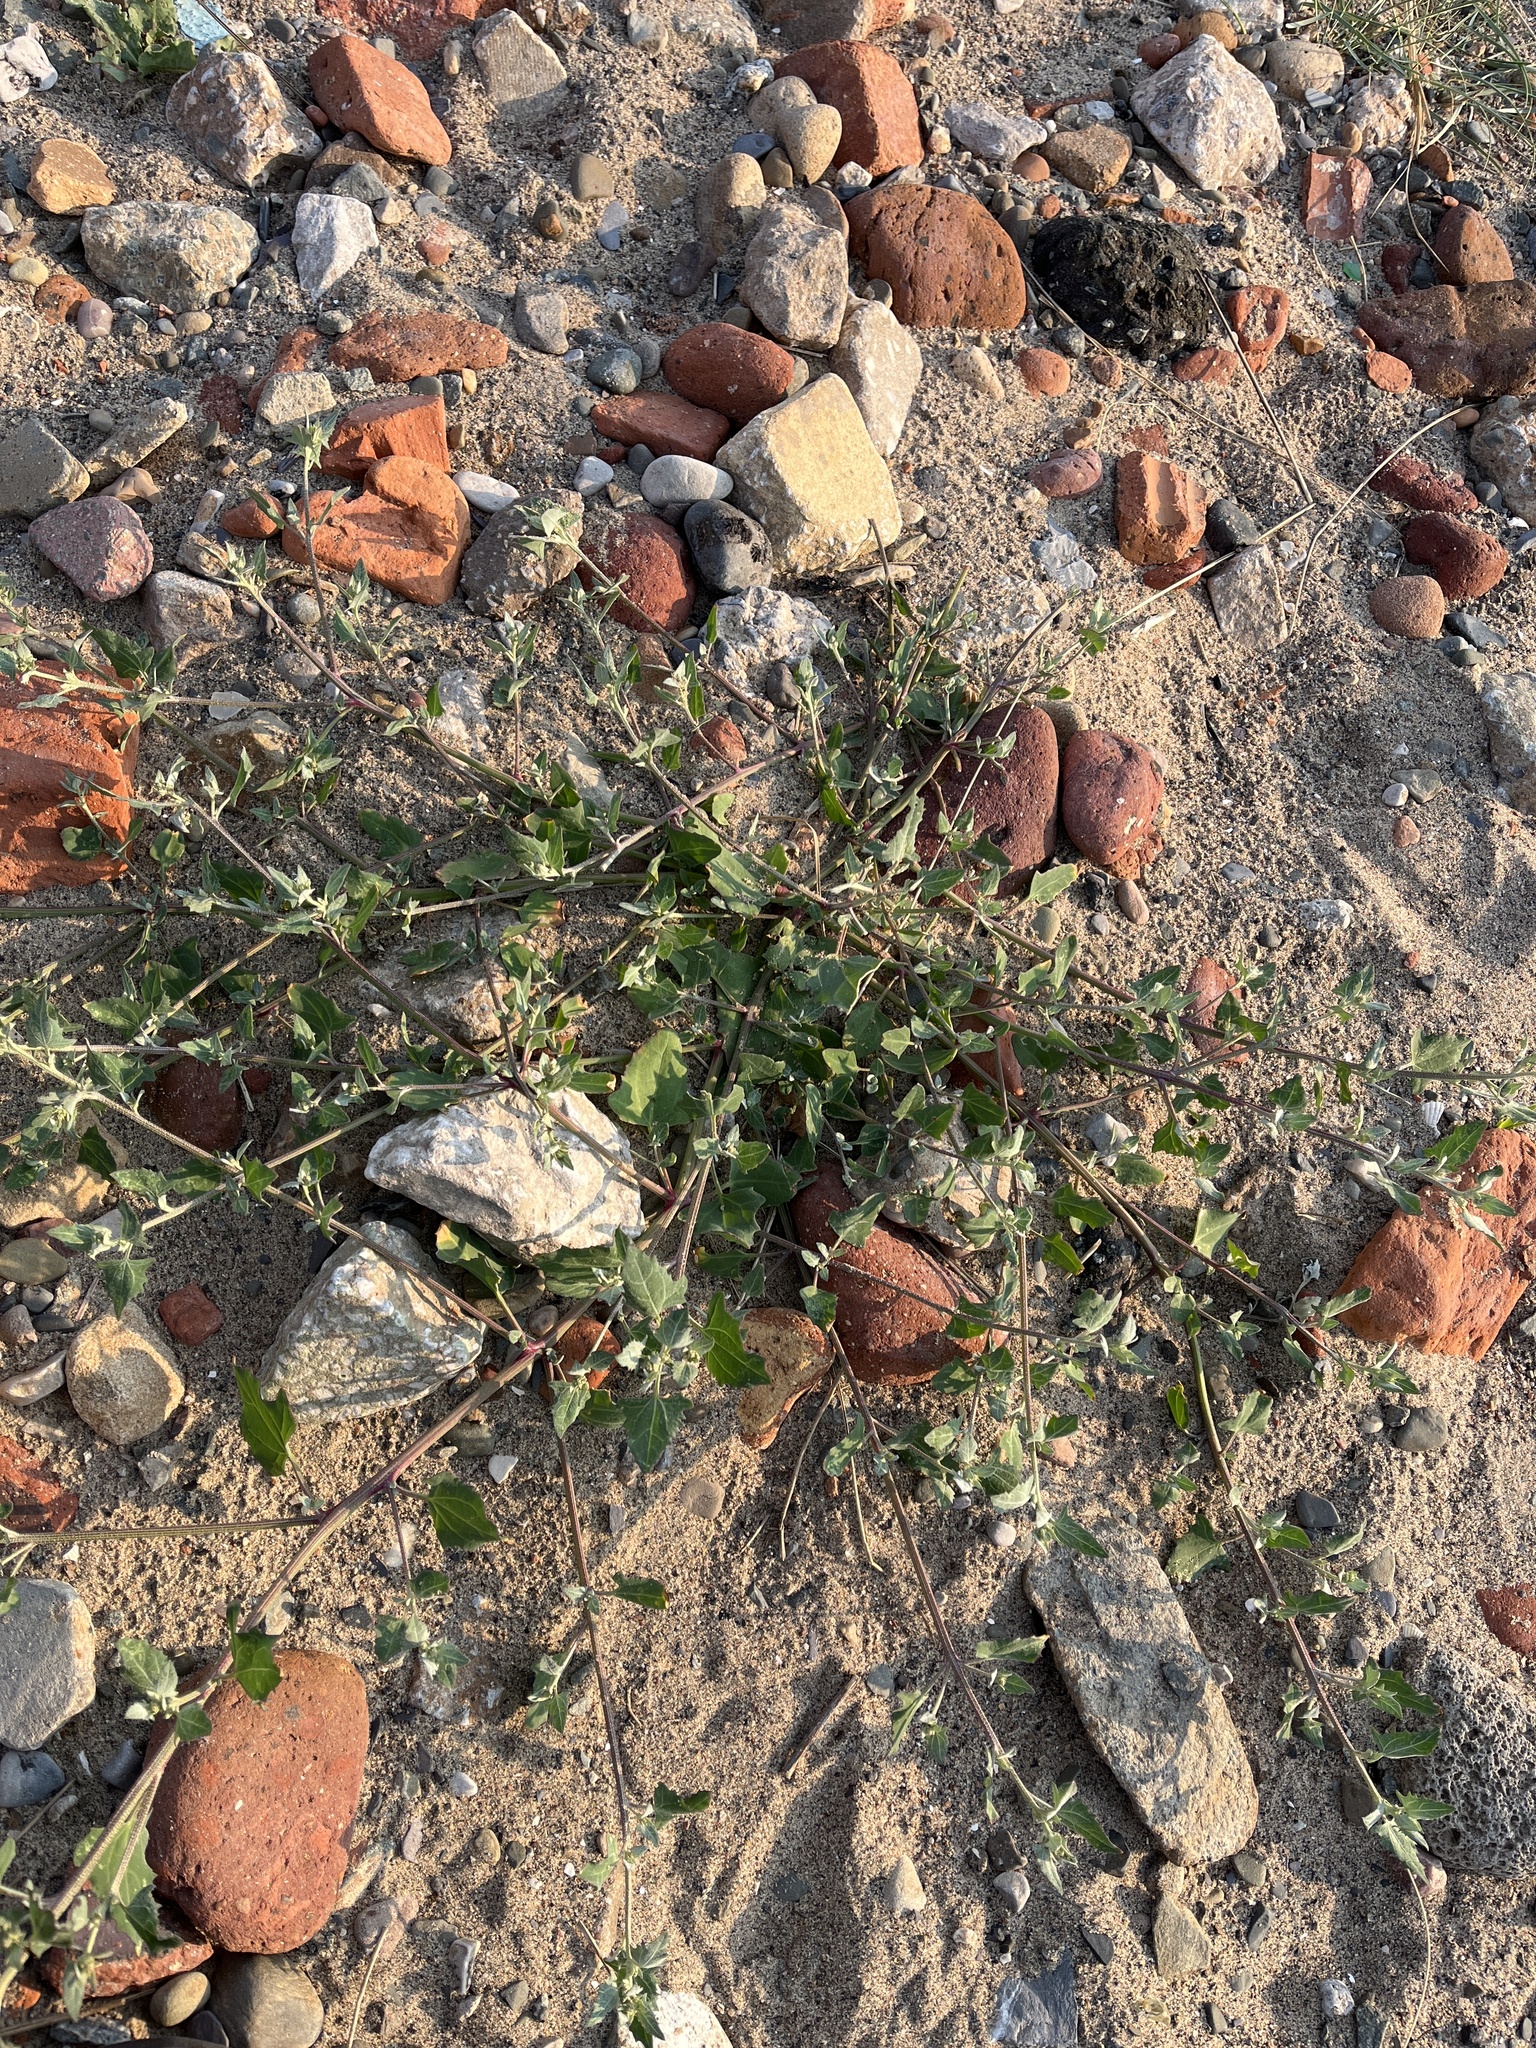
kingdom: Plantae
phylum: Tracheophyta
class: Magnoliopsida
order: Caryophyllales
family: Amaranthaceae
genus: Atriplex
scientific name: Atriplex prostrata
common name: Spear-leaved orache
